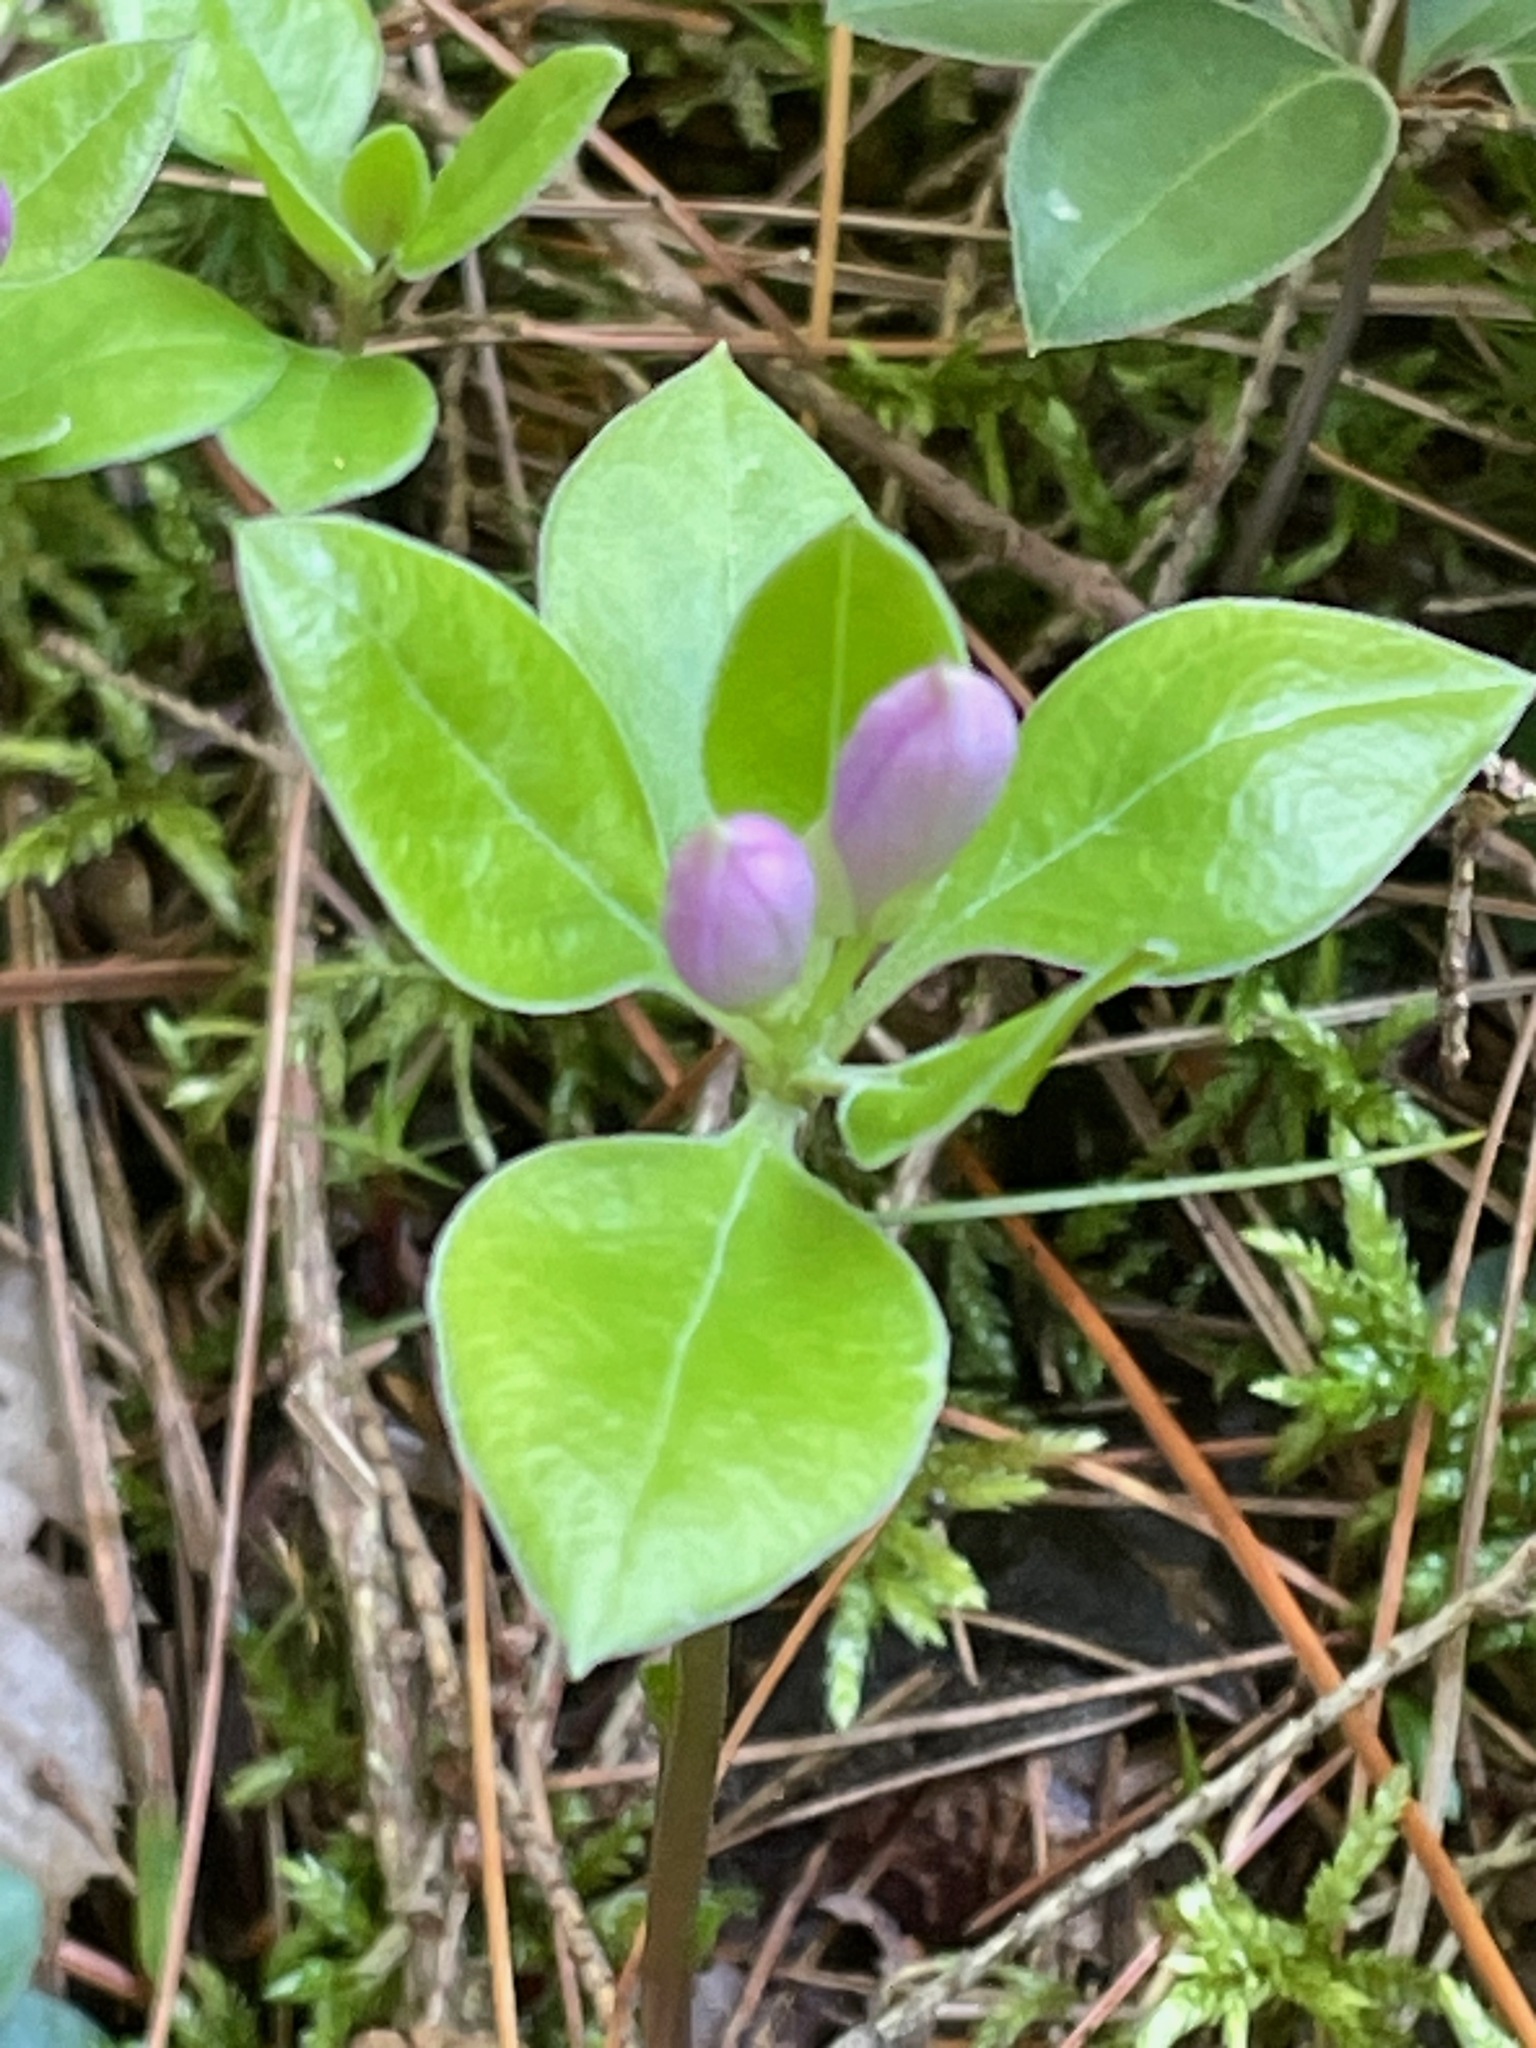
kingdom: Plantae
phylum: Tracheophyta
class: Magnoliopsida
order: Fabales
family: Polygalaceae
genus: Polygaloides
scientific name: Polygaloides paucifolia
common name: Bird-on-the-wing
